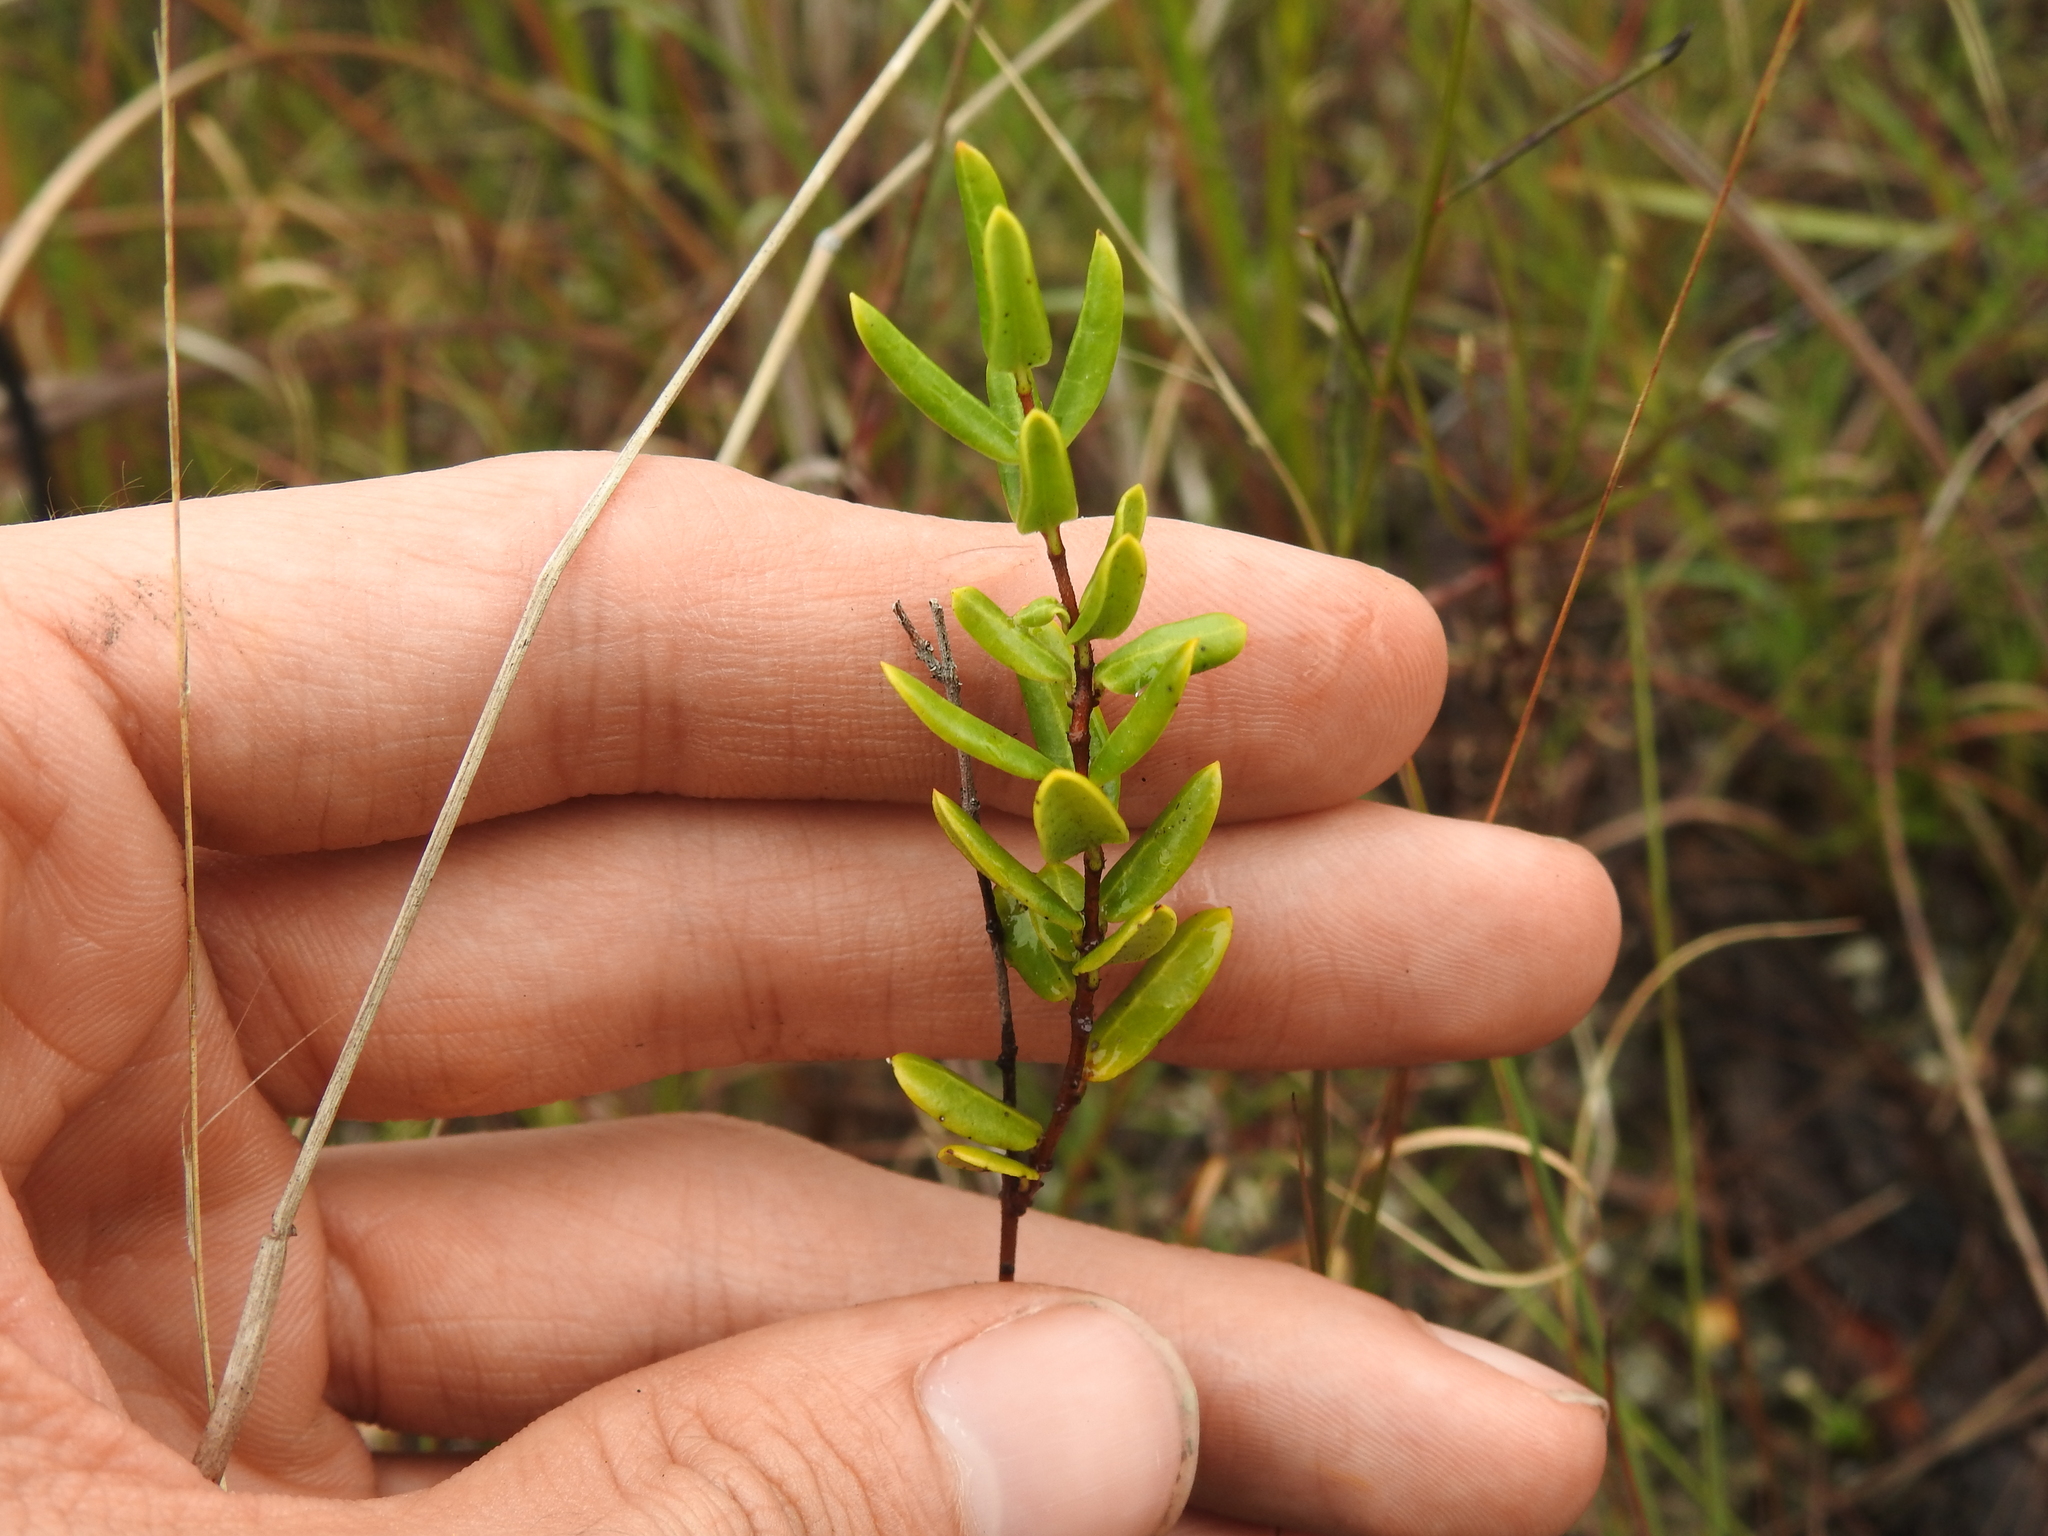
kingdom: Plantae
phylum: Tracheophyta
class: Magnoliopsida
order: Gentianales
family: Apocynaceae
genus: Angadenia
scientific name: Angadenia berteroi
